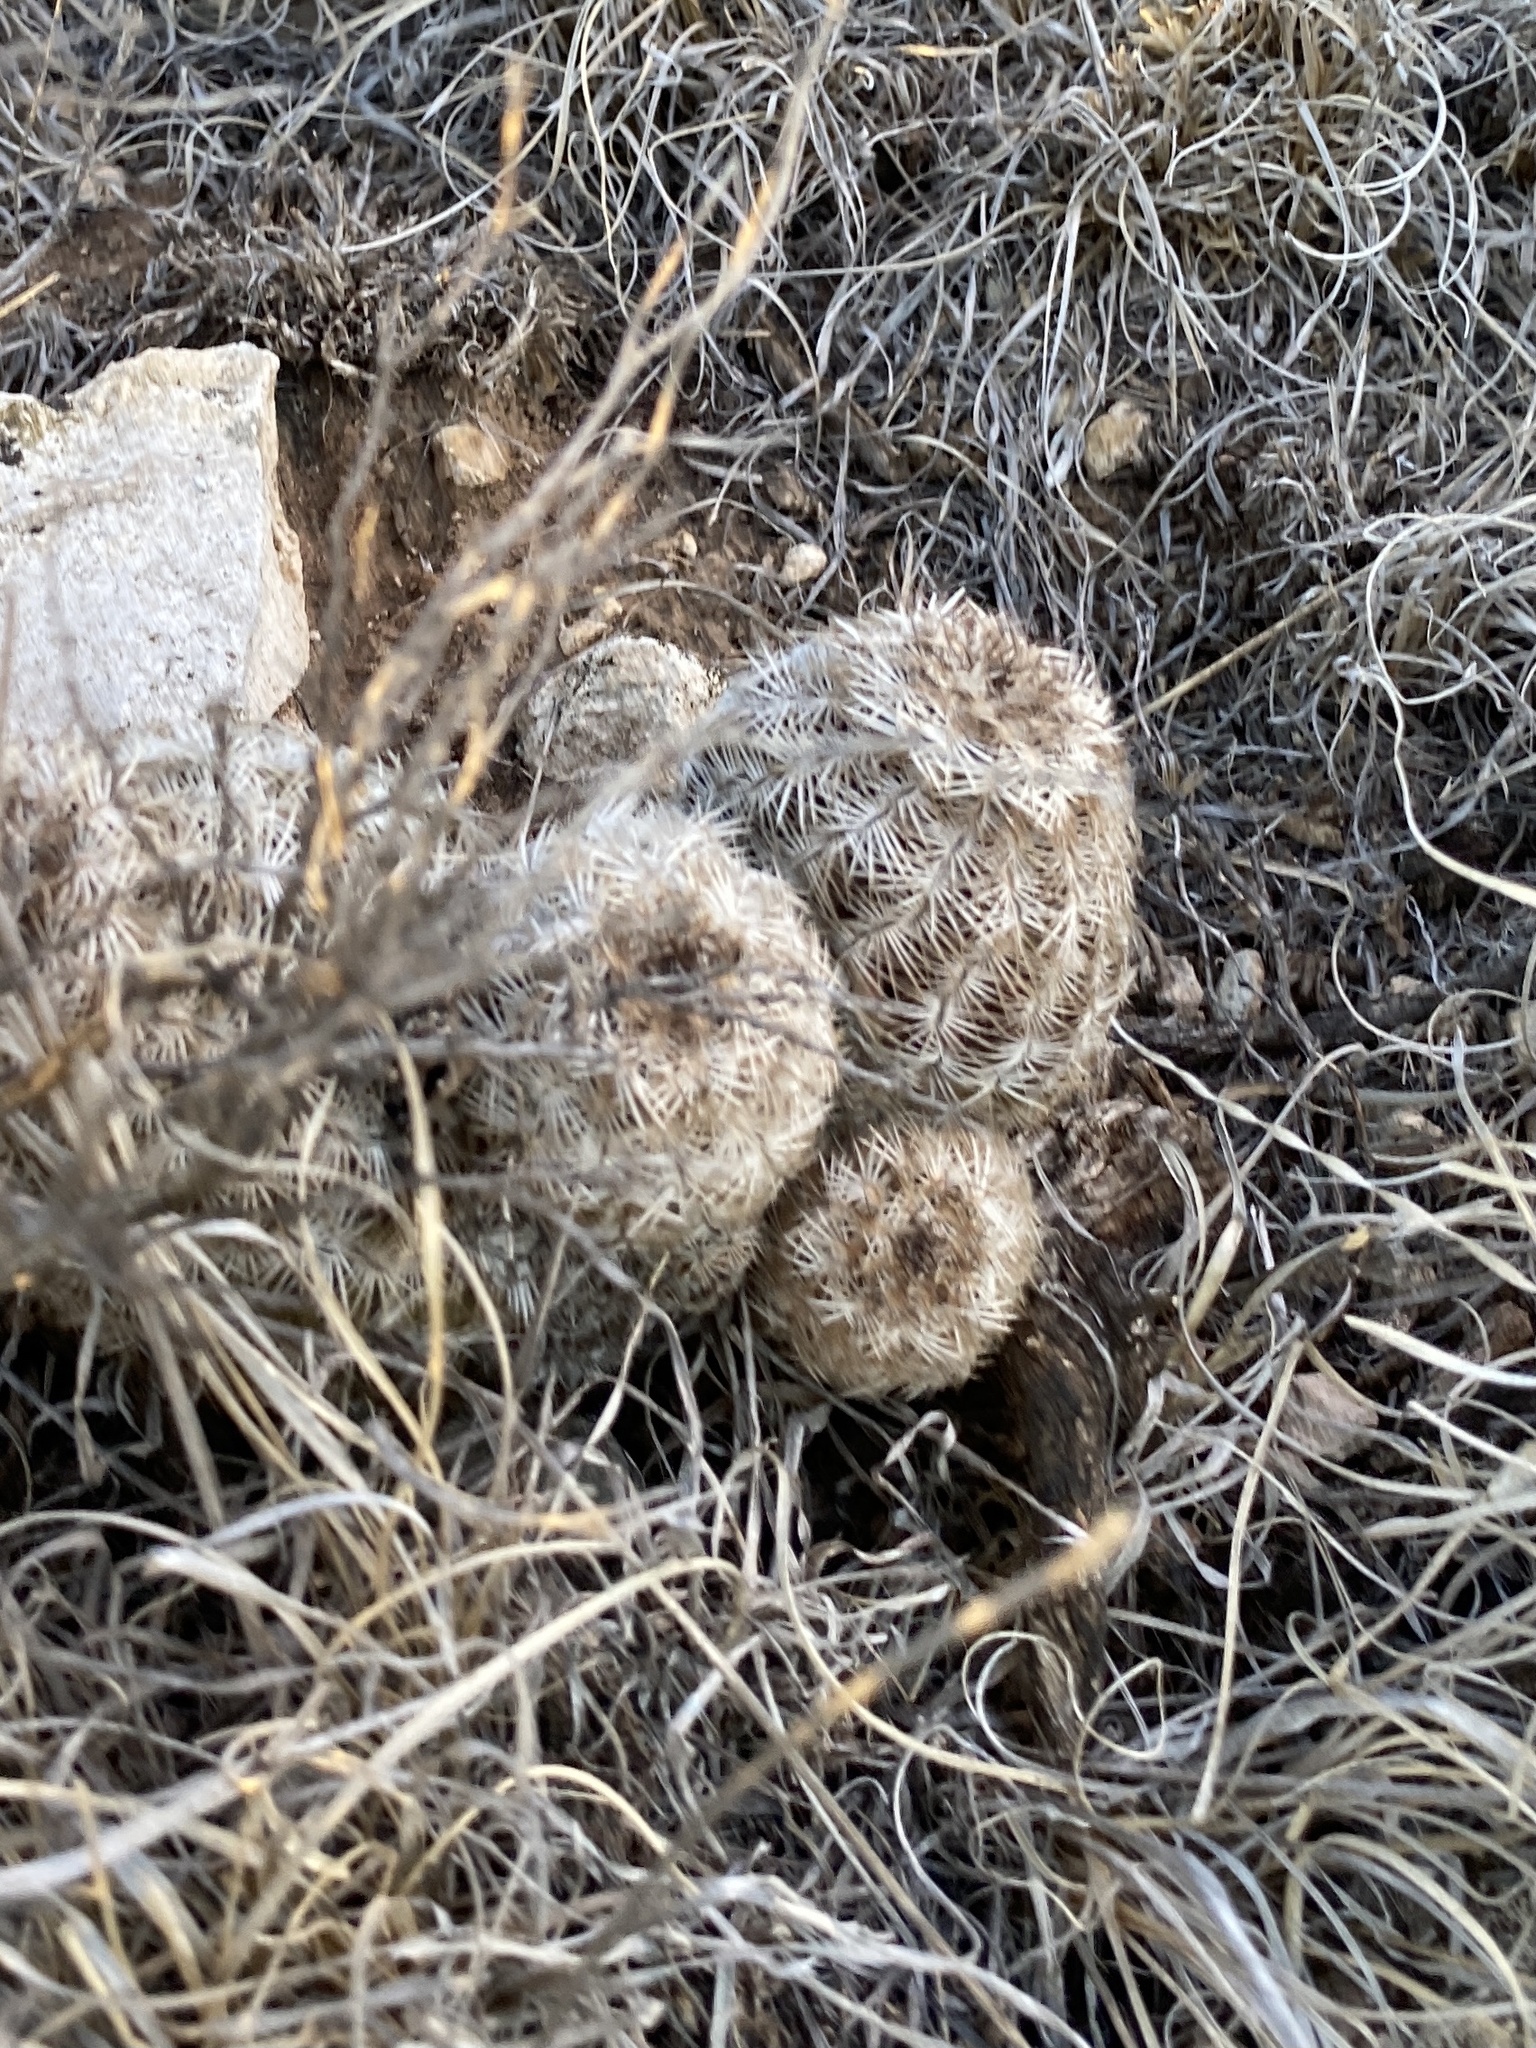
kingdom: Plantae
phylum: Tracheophyta
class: Magnoliopsida
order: Caryophyllales
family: Cactaceae
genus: Echinocereus
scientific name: Echinocereus reichenbachii
